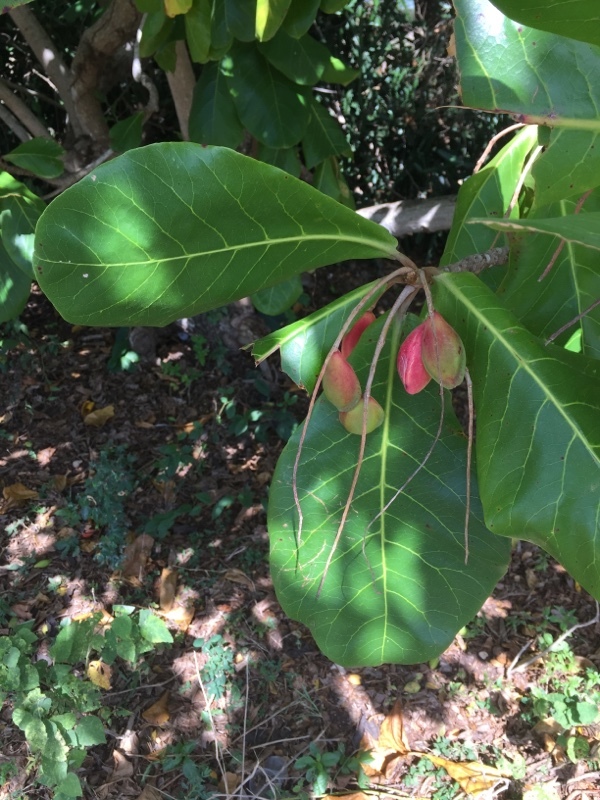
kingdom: Plantae
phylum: Tracheophyta
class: Magnoliopsida
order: Myrtales
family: Combretaceae
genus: Terminalia
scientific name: Terminalia catappa
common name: Tropical almond
